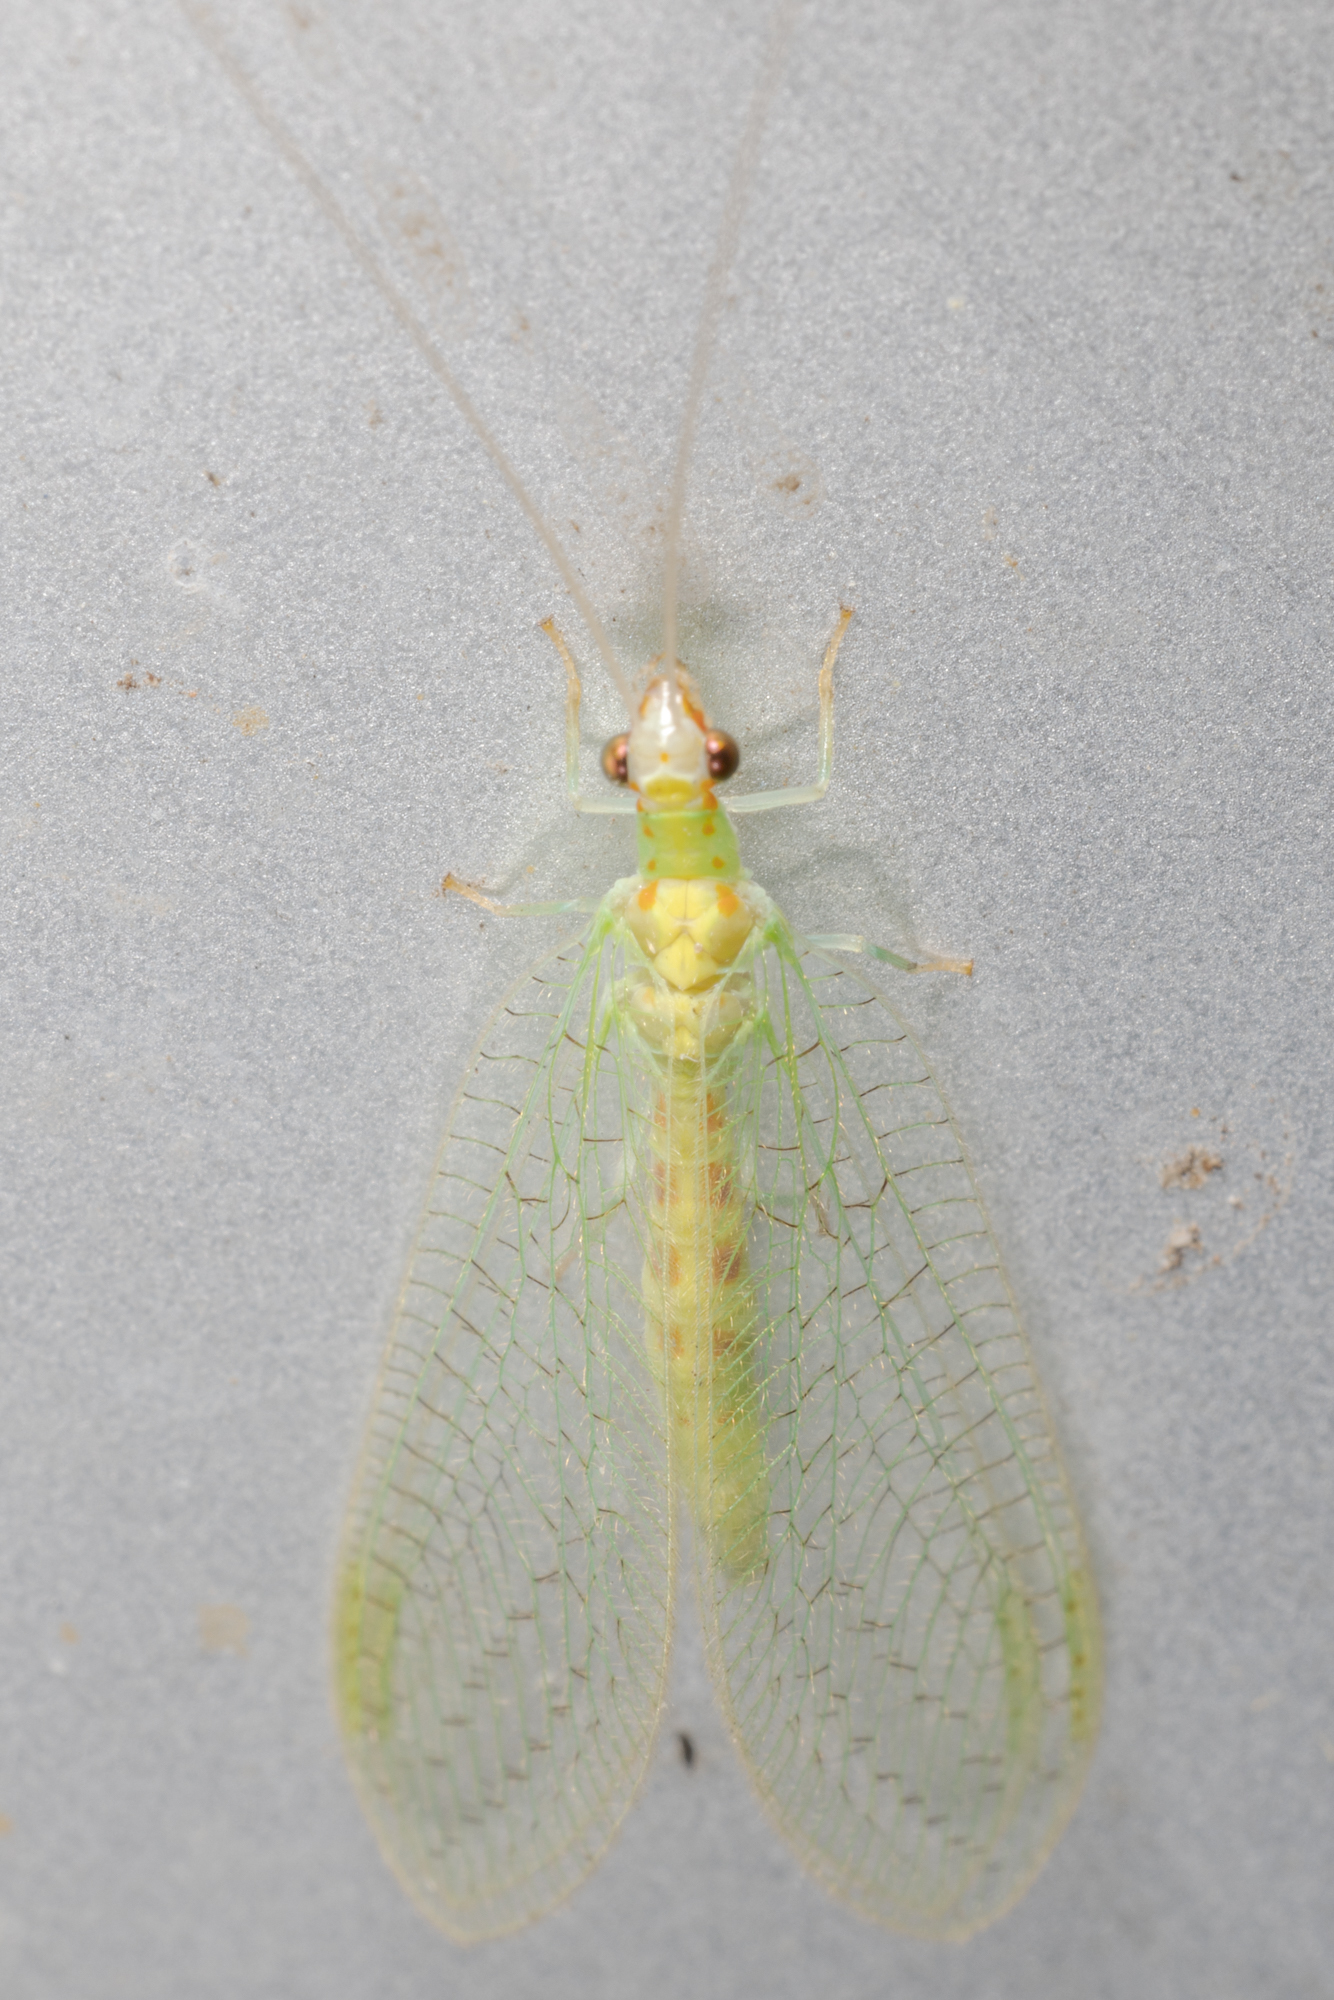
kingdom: Animalia
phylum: Arthropoda
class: Insecta
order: Neuroptera
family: Chrysopidae
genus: Chrysopa
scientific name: Chrysopa quadripunctata
